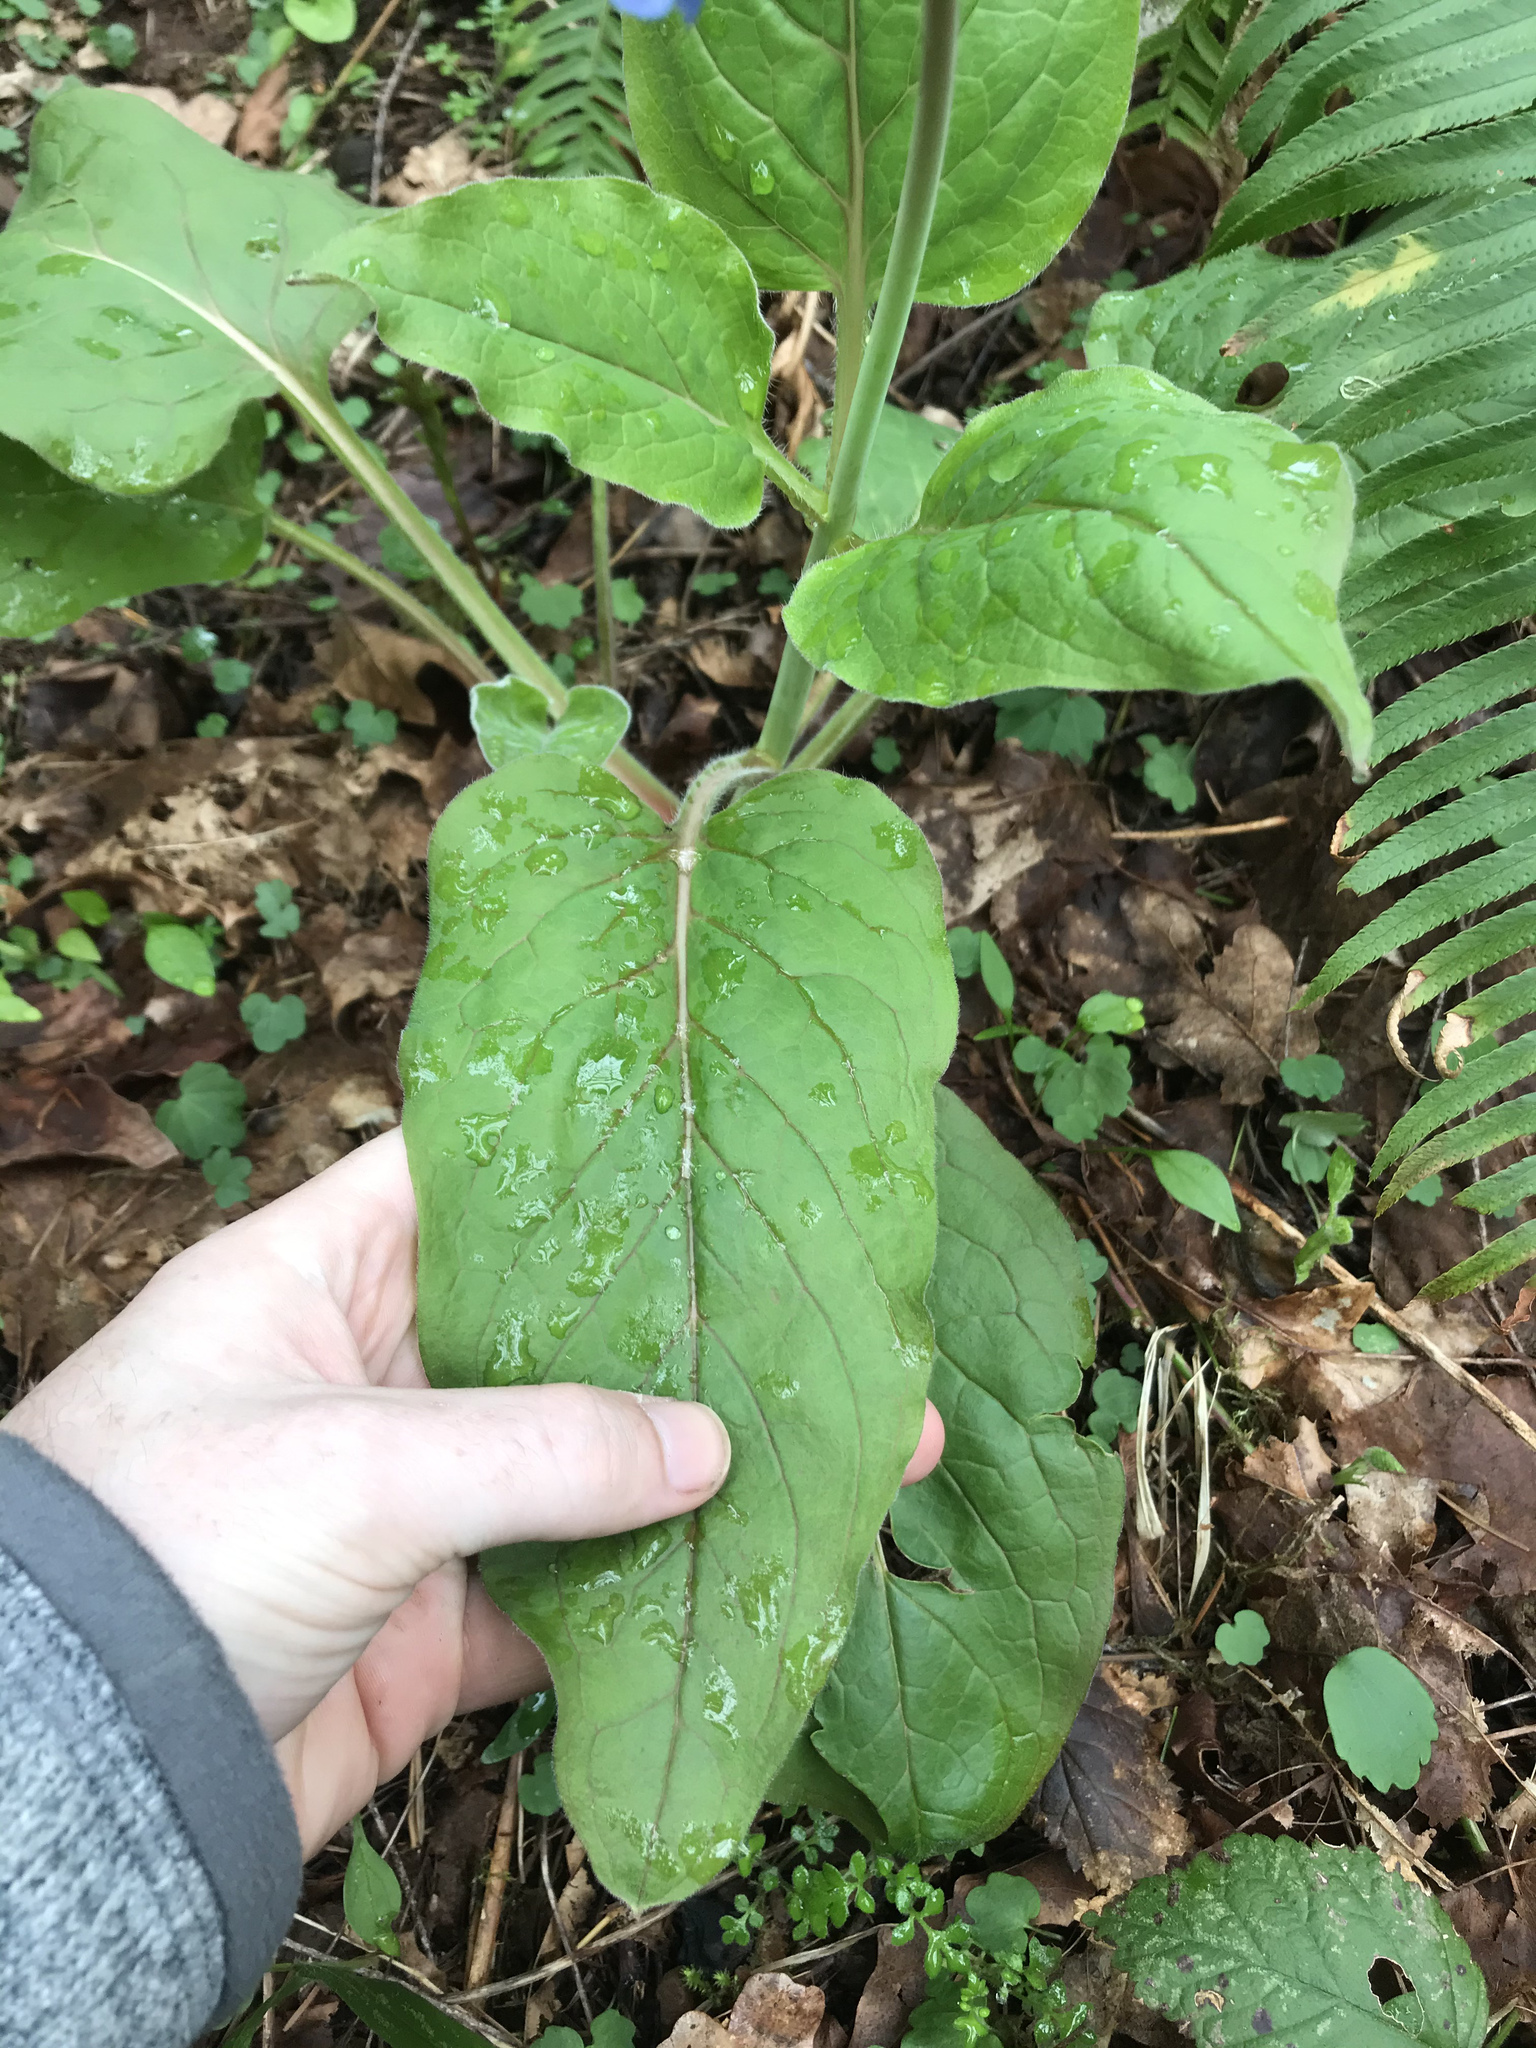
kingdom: Plantae
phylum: Tracheophyta
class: Magnoliopsida
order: Boraginales
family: Boraginaceae
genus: Adelinia
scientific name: Adelinia grande
